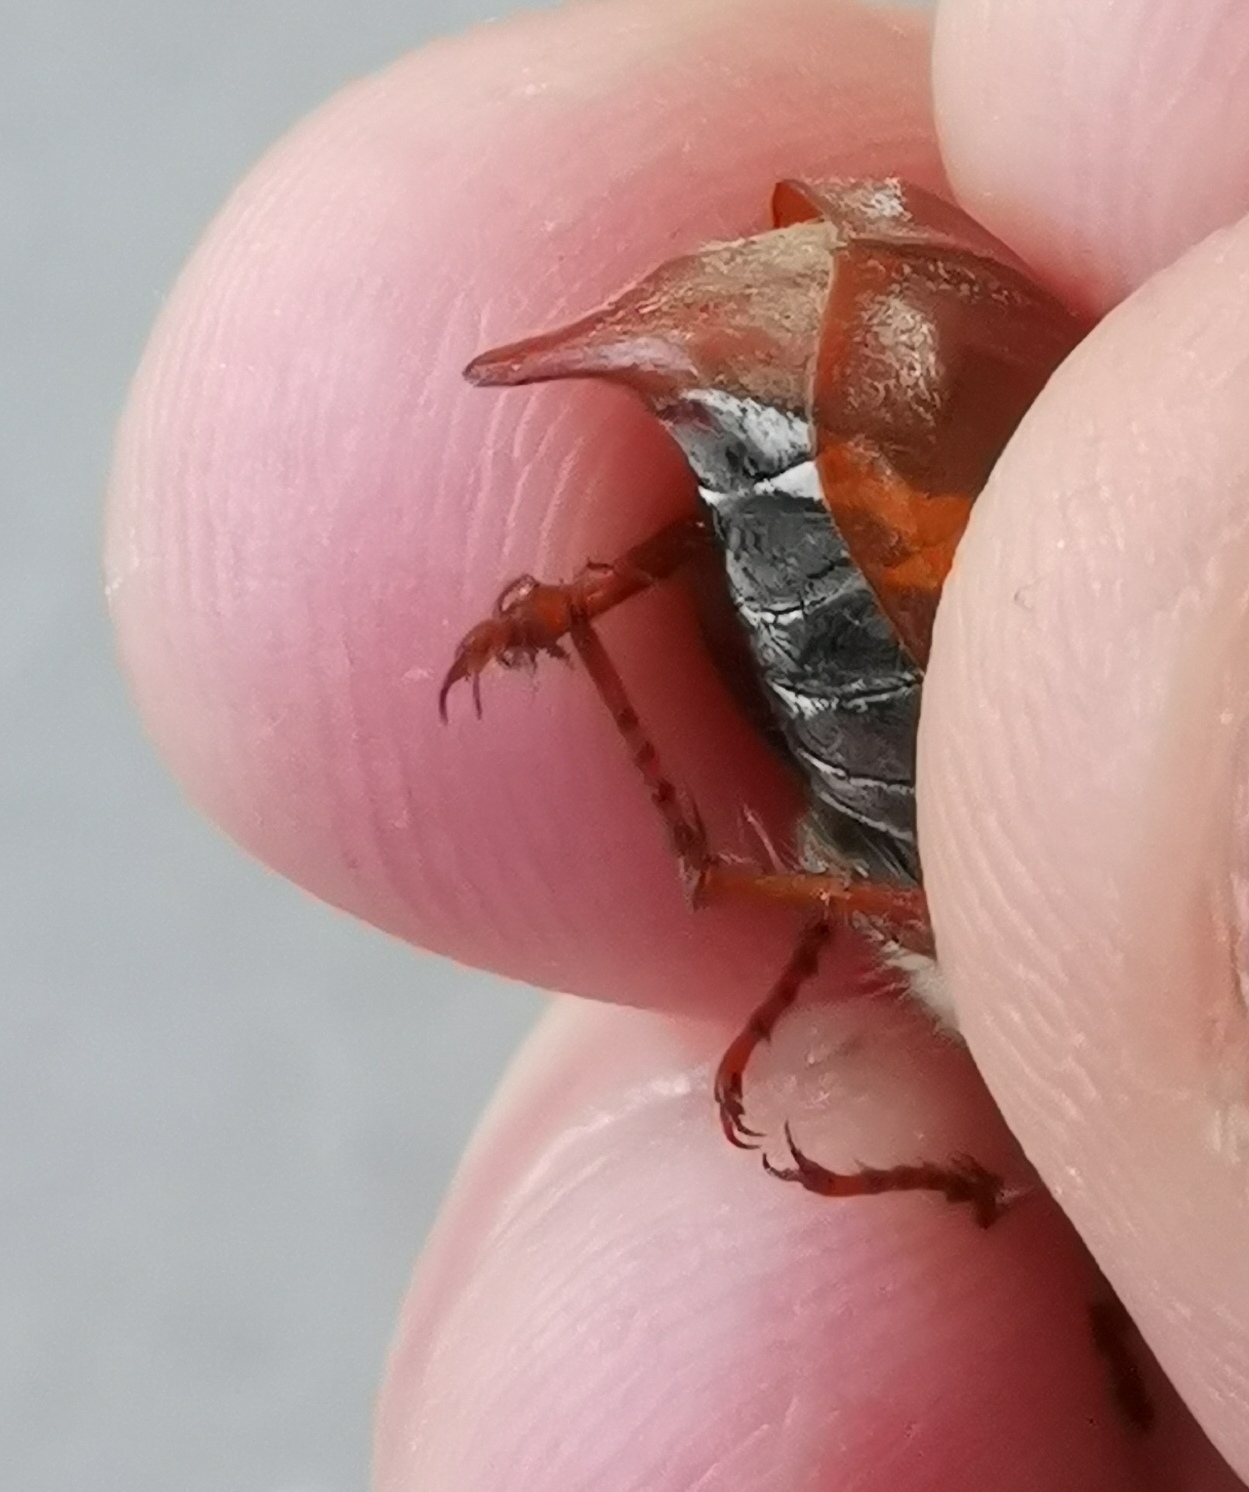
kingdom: Animalia
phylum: Arthropoda
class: Insecta
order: Coleoptera
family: Scarabaeidae
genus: Melolontha
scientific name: Melolontha melolontha
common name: Cockchafer maybeetle
